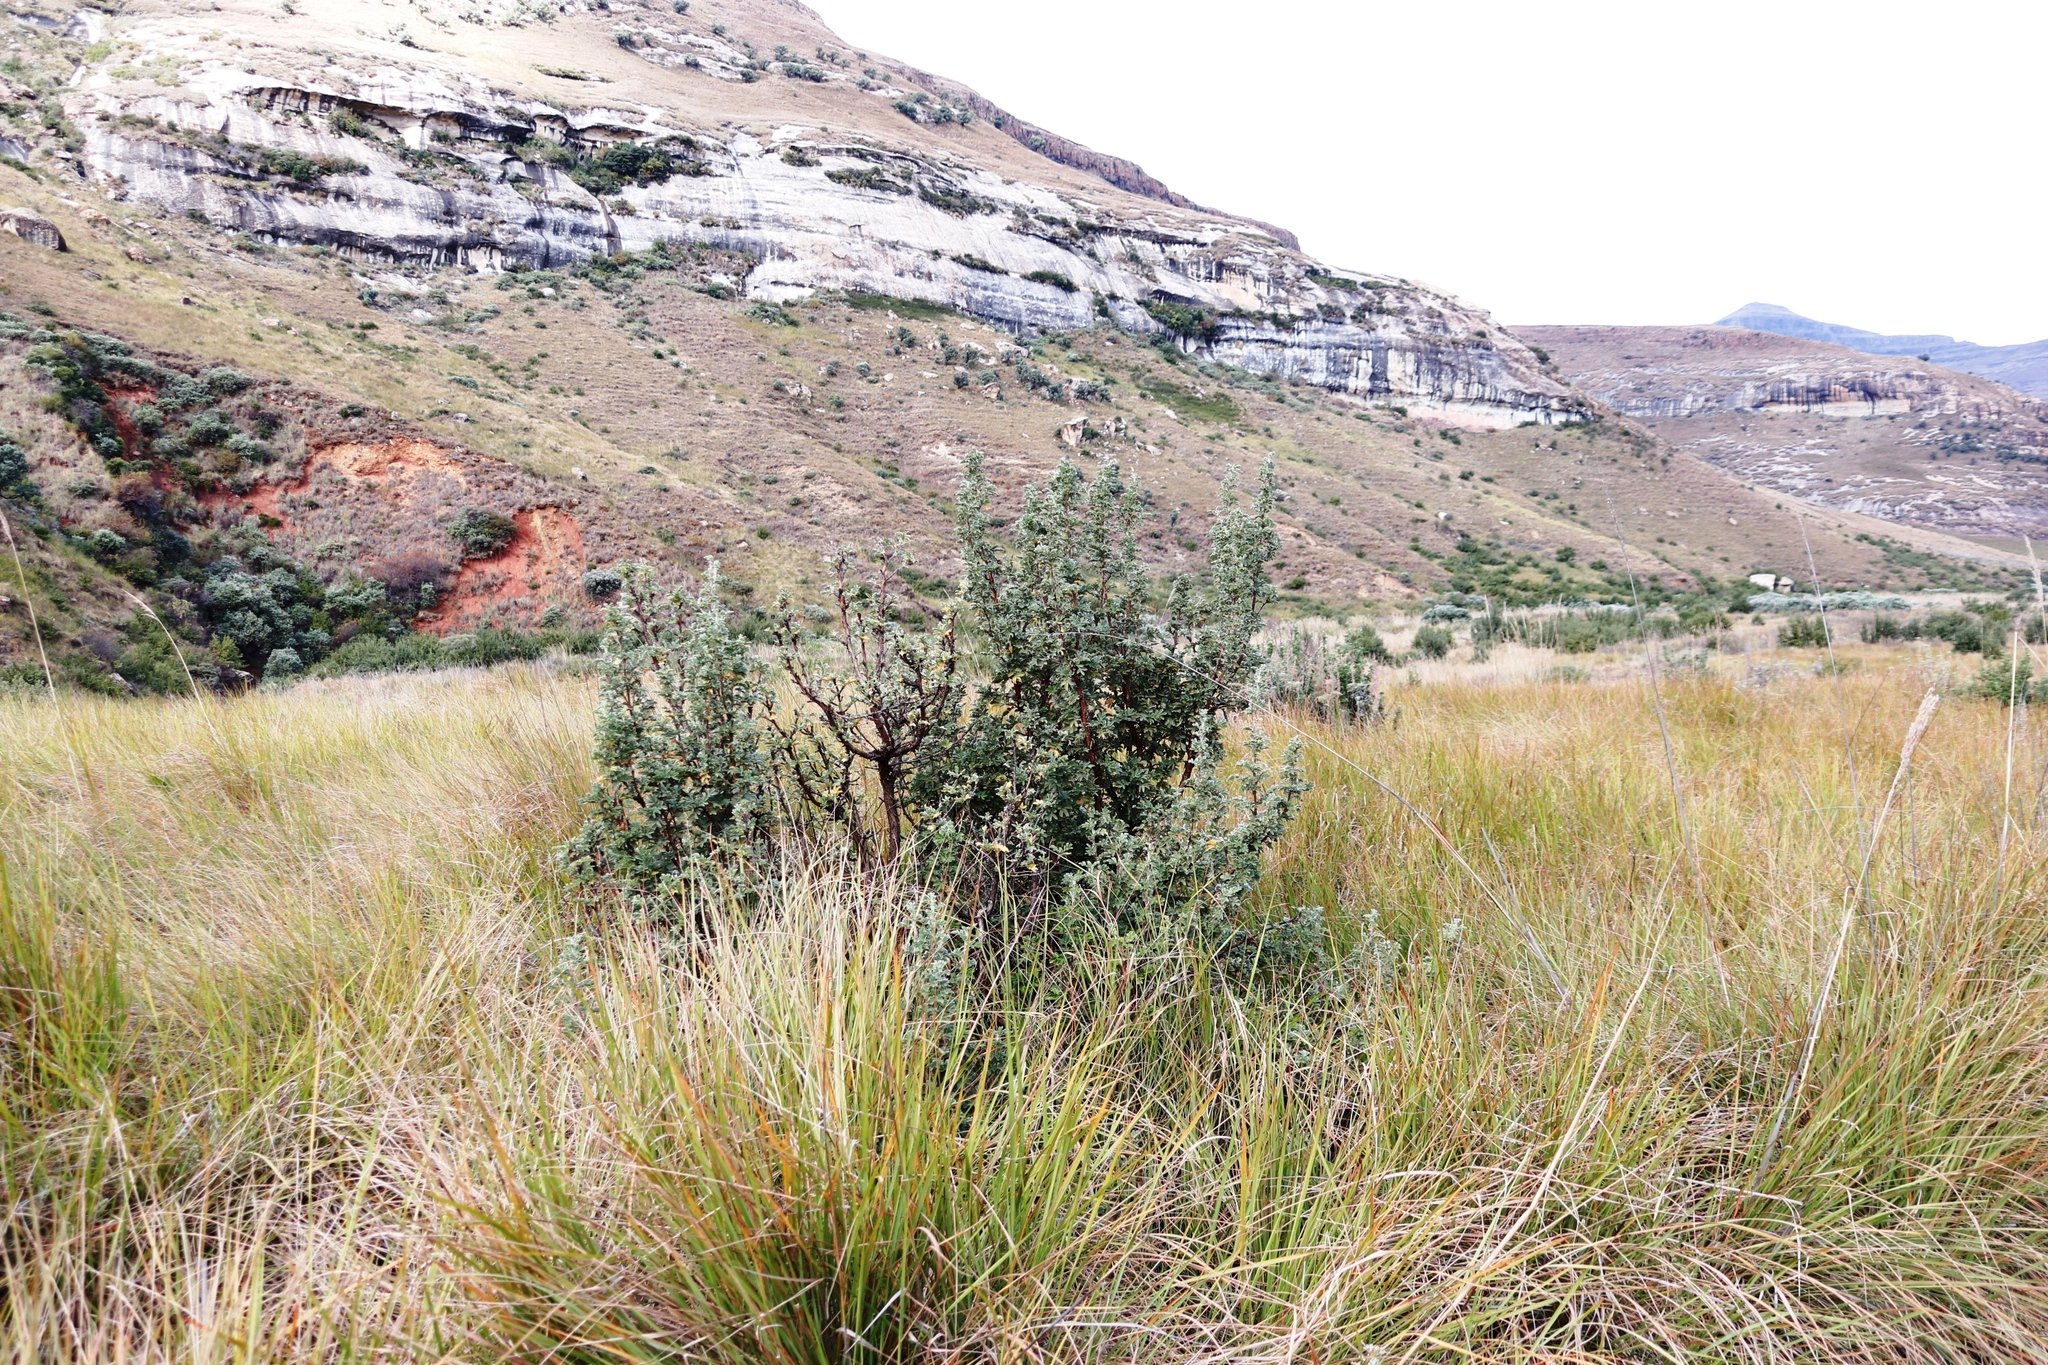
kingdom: Plantae
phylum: Tracheophyta
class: Magnoliopsida
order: Rosales
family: Rosaceae
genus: Leucosidea
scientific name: Leucosidea sericea
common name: Oldwood
